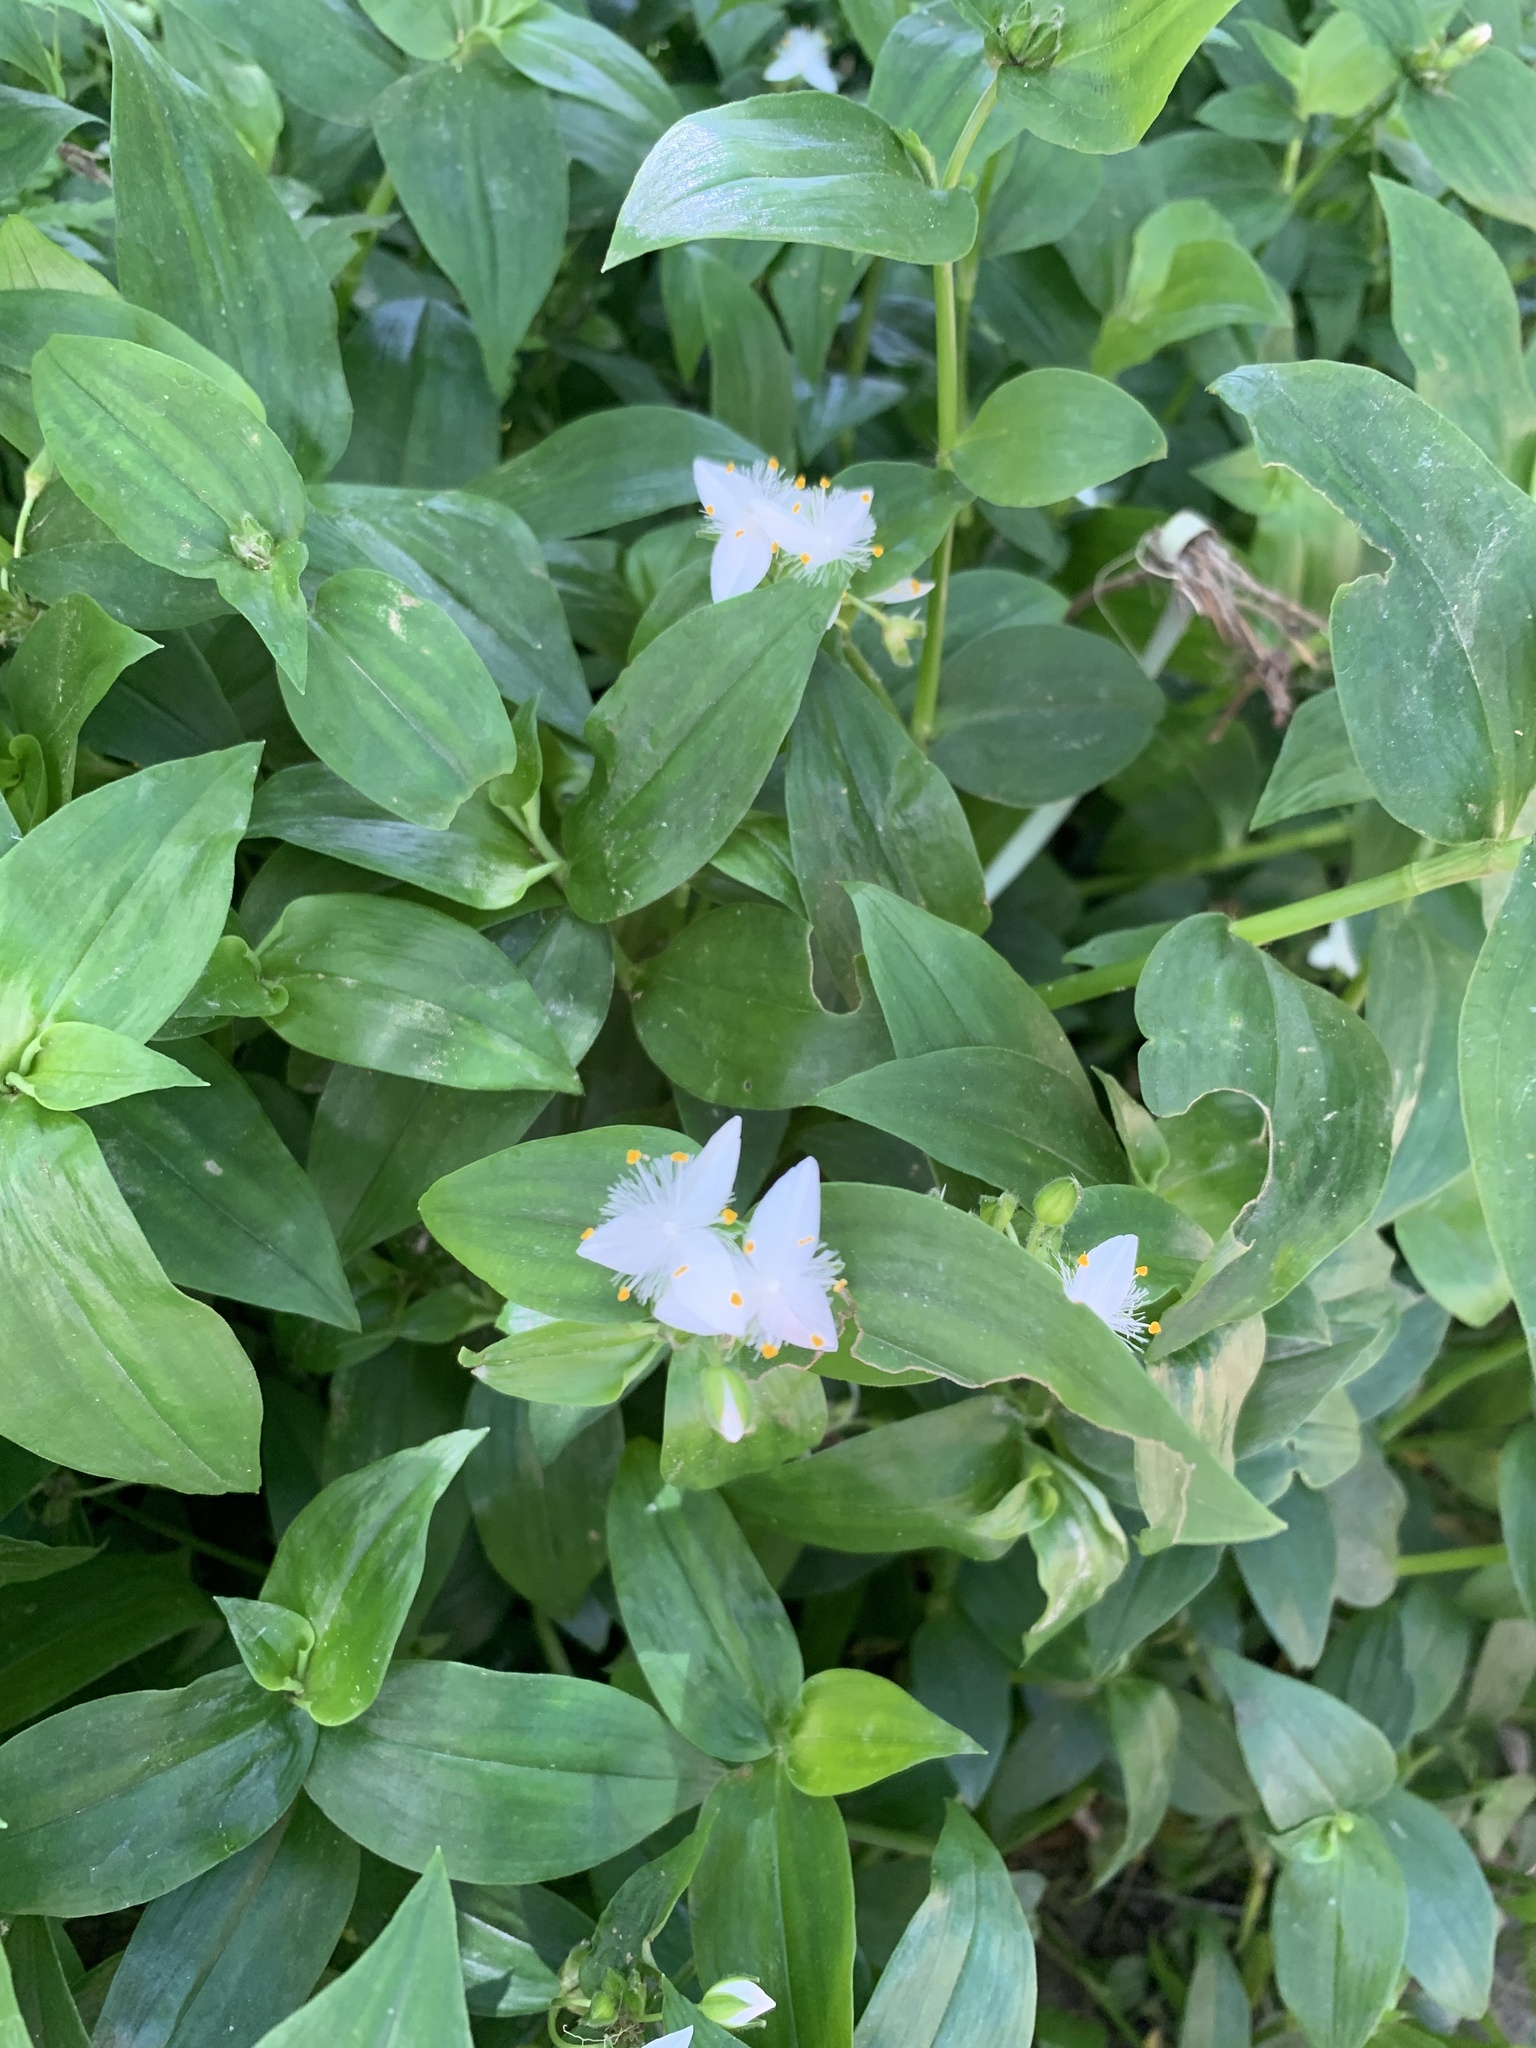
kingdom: Plantae
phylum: Tracheophyta
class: Liliopsida
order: Commelinales
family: Commelinaceae
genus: Tradescantia
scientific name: Tradescantia fluminensis
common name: Wandering-jew
